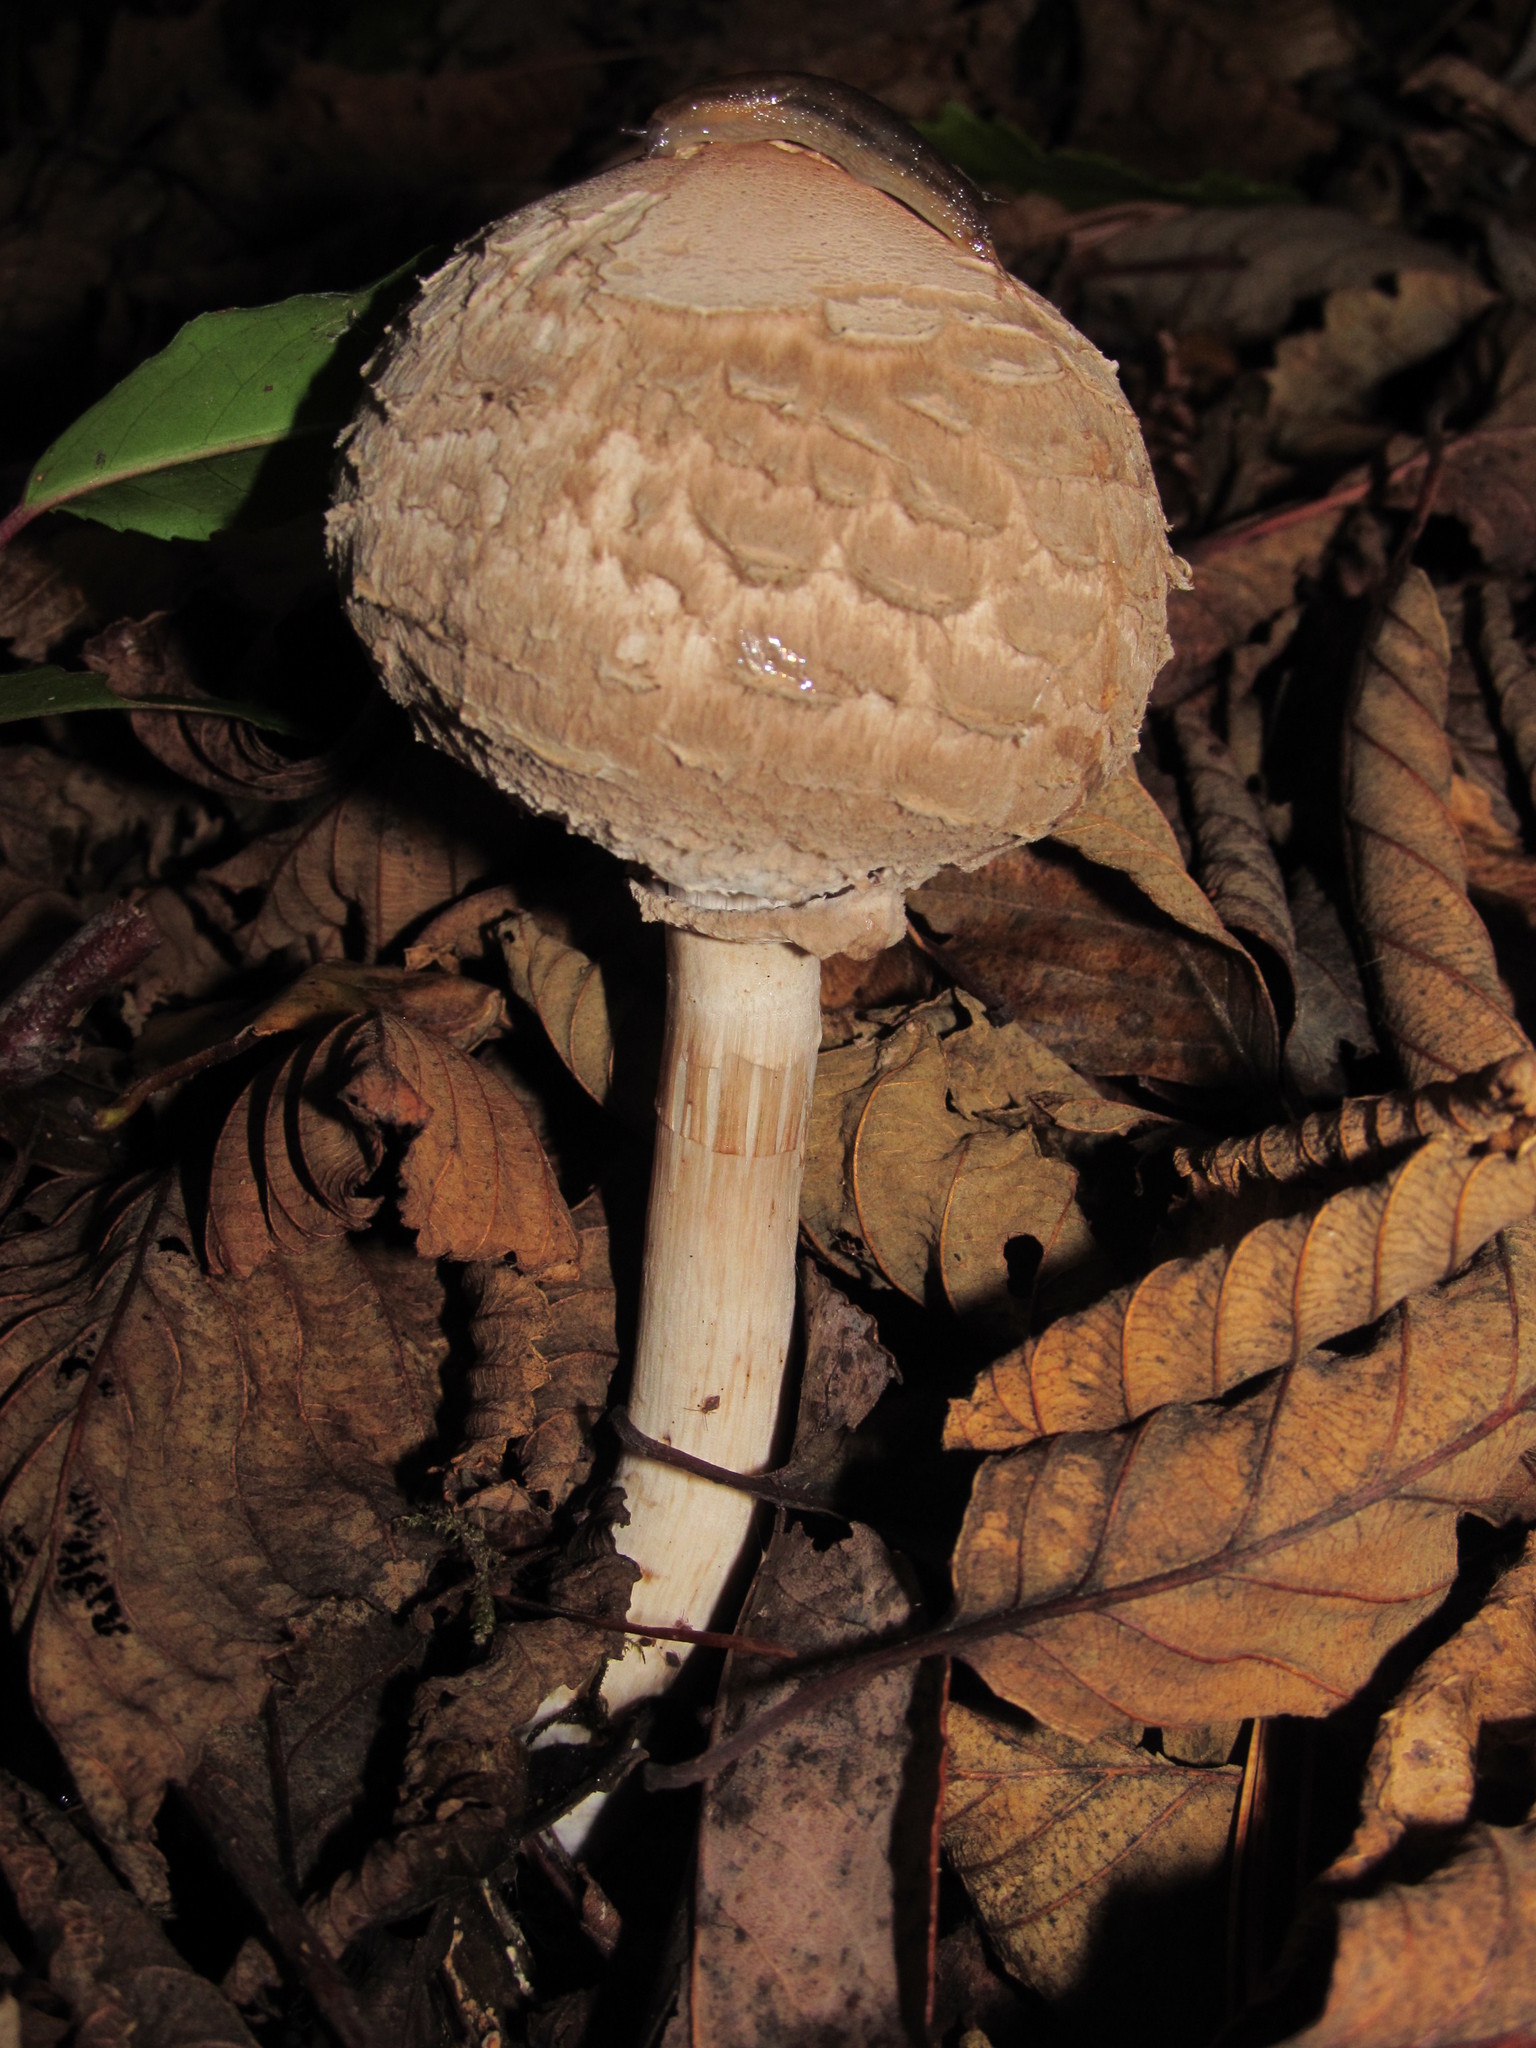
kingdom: Fungi
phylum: Basidiomycota
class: Agaricomycetes
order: Agaricales
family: Agaricaceae
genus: Chlorophyllum
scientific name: Chlorophyllum olivieri
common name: Conifer parasol
